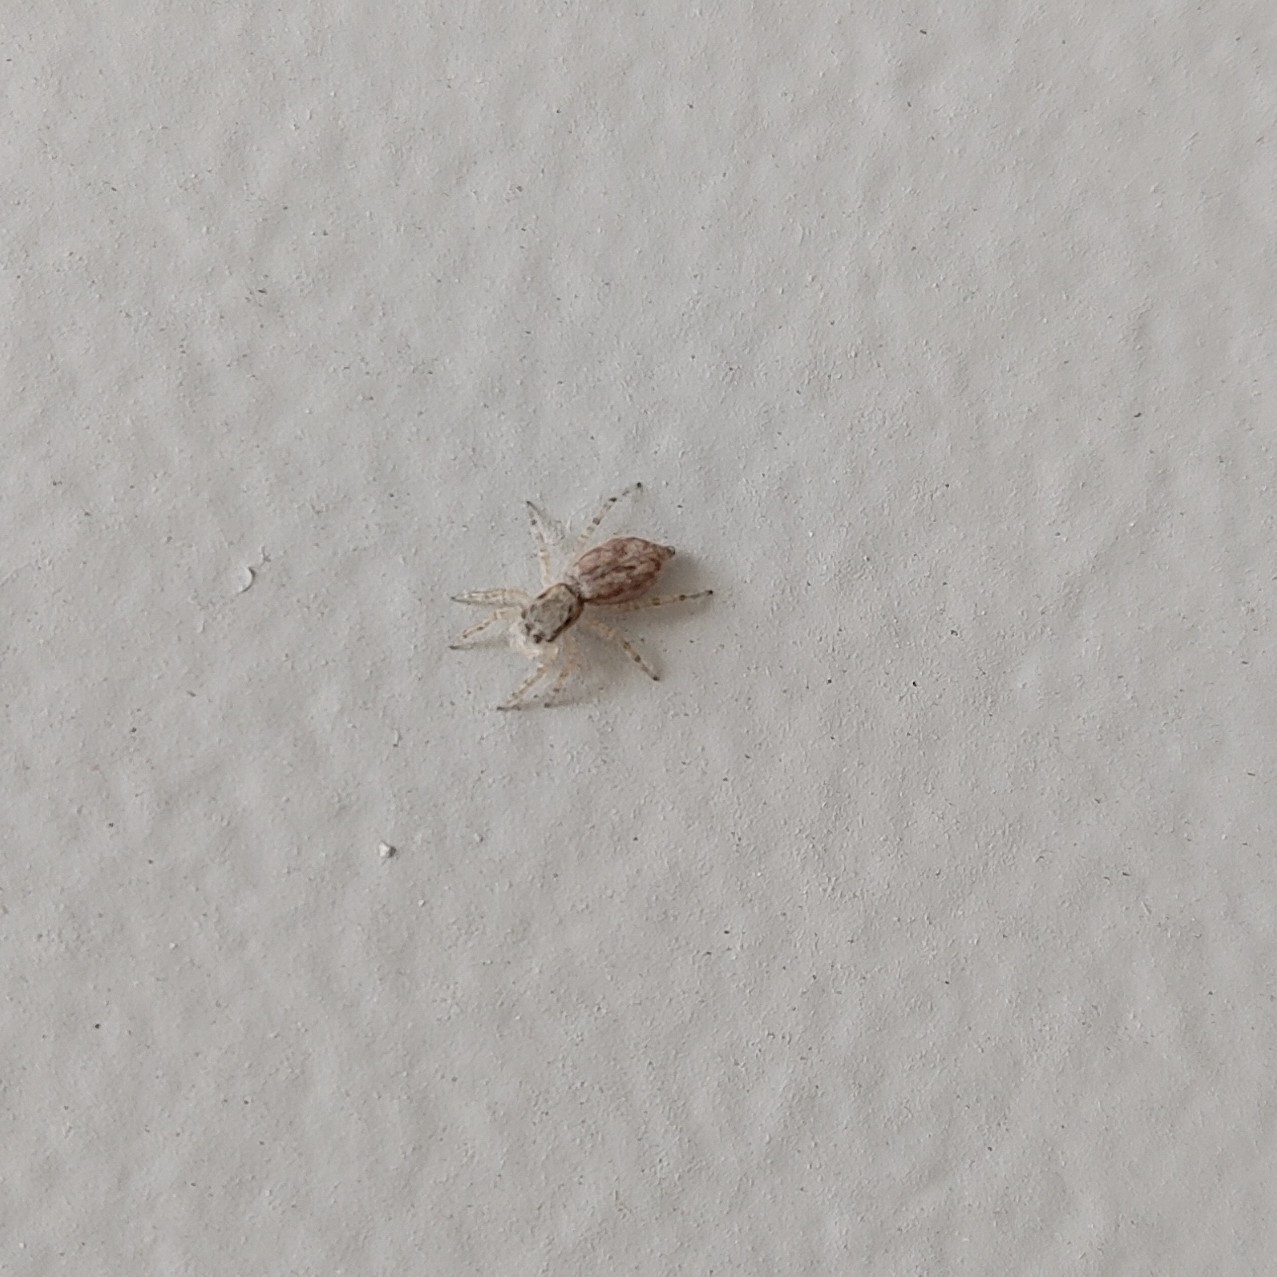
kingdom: Animalia
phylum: Arthropoda
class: Arachnida
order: Araneae
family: Salticidae
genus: Menemerus
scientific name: Menemerus bivittatus
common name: Gray wall jumper
